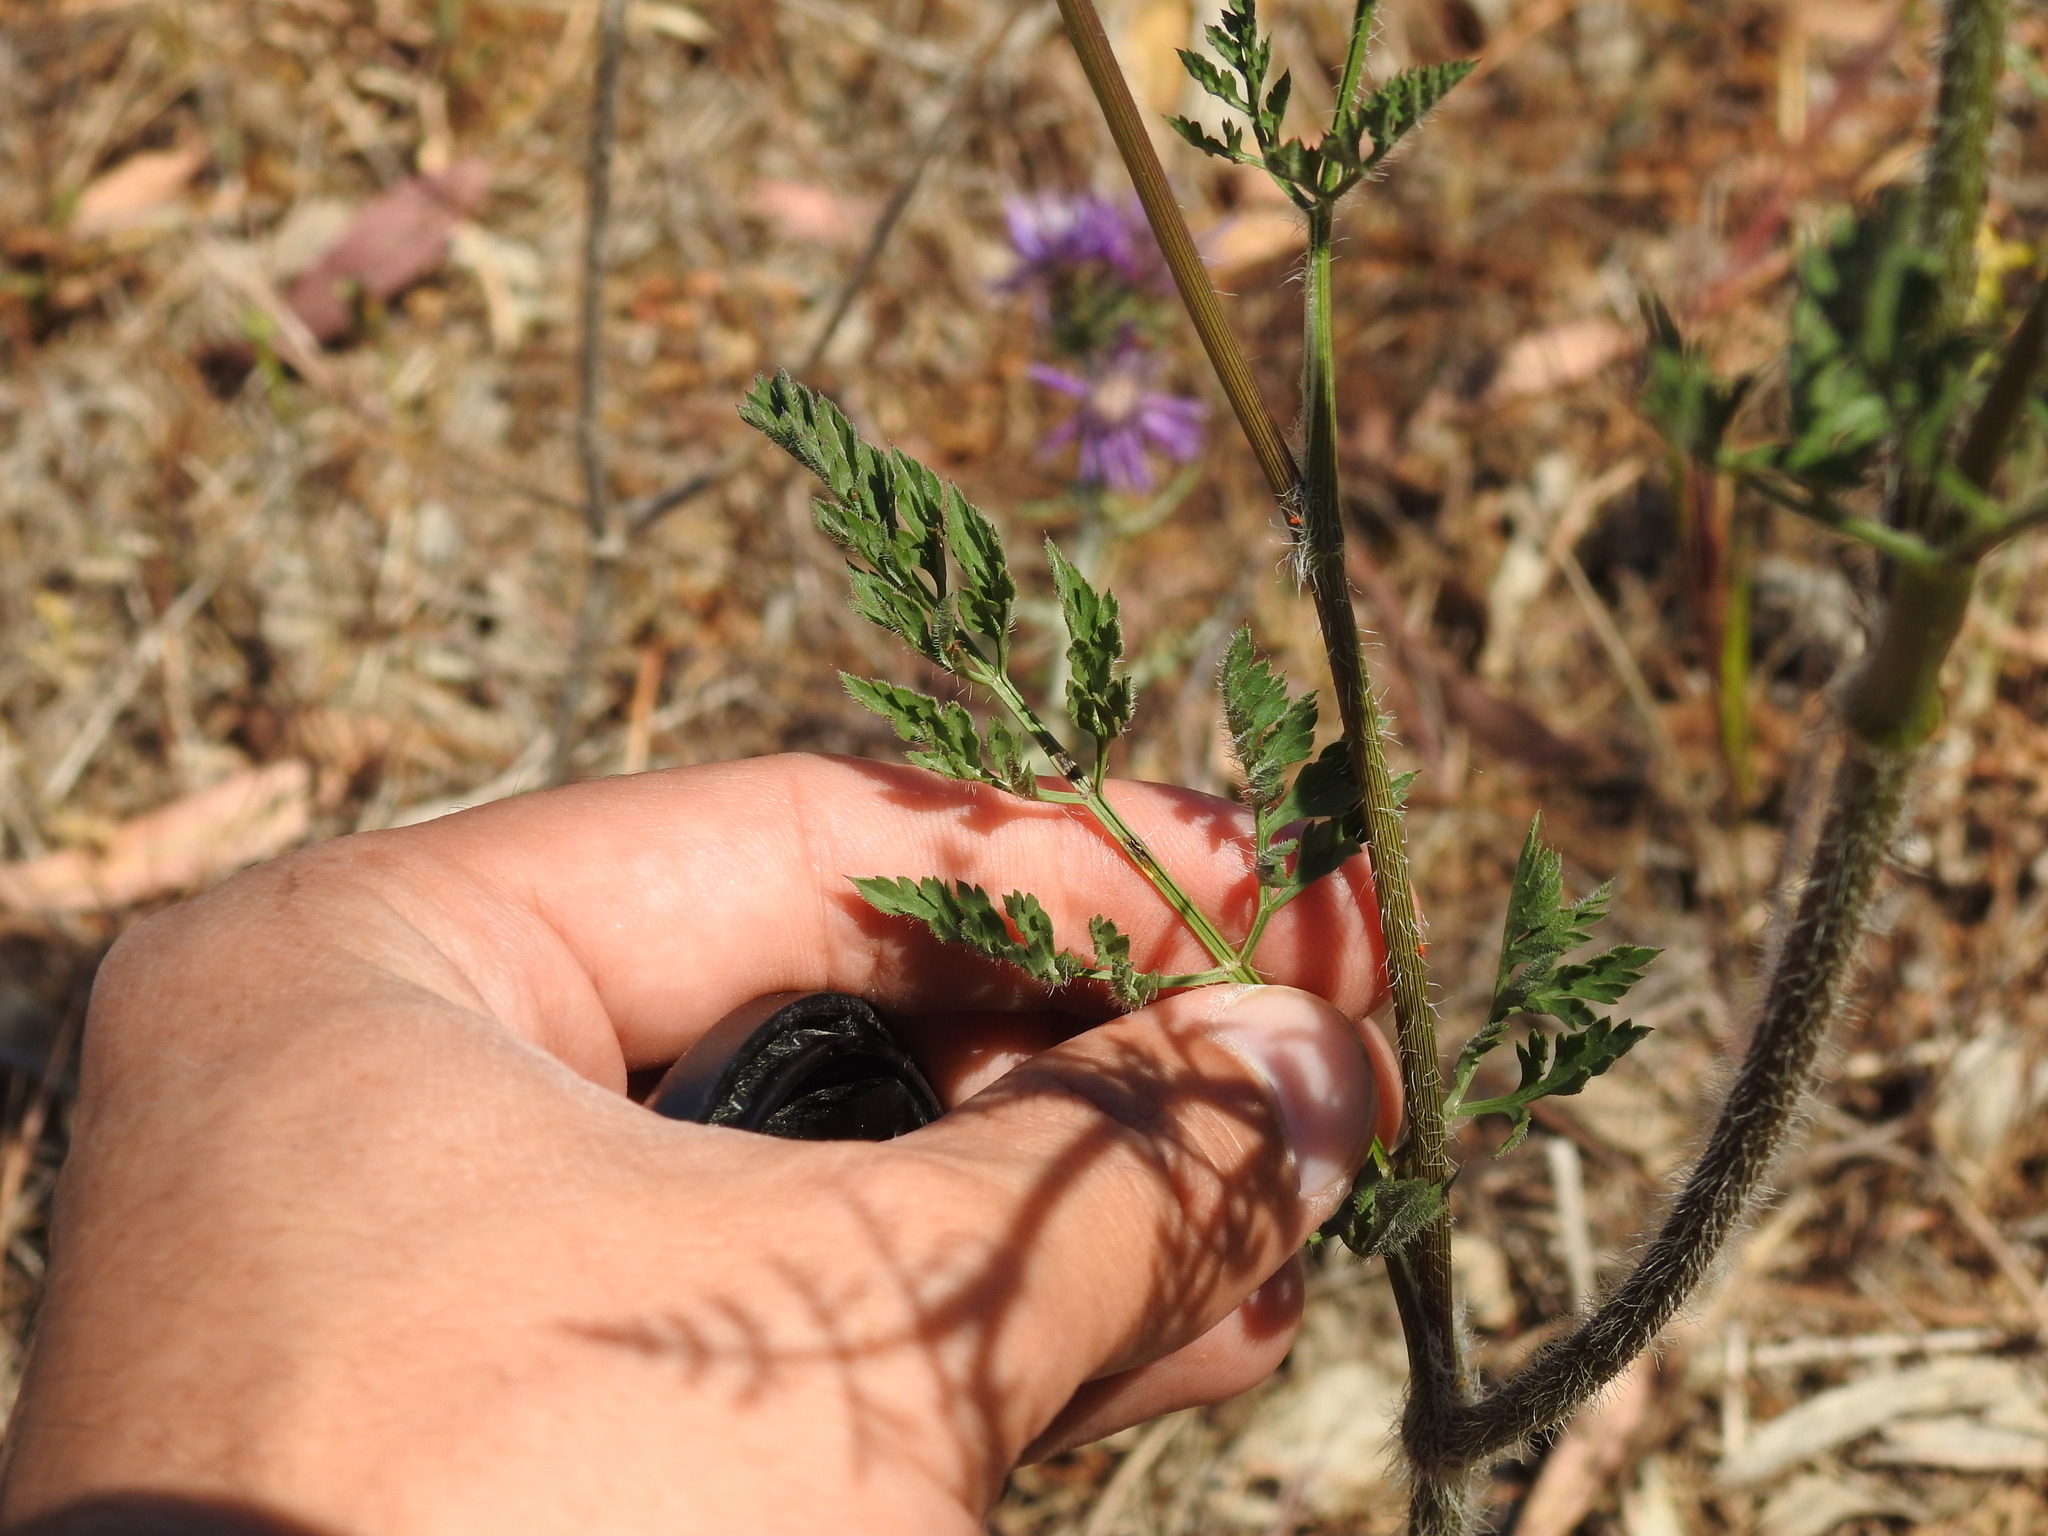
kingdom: Plantae
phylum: Tracheophyta
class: Magnoliopsida
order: Apiales
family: Apiaceae
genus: Daucus
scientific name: Daucus carota
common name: Wild carrot
